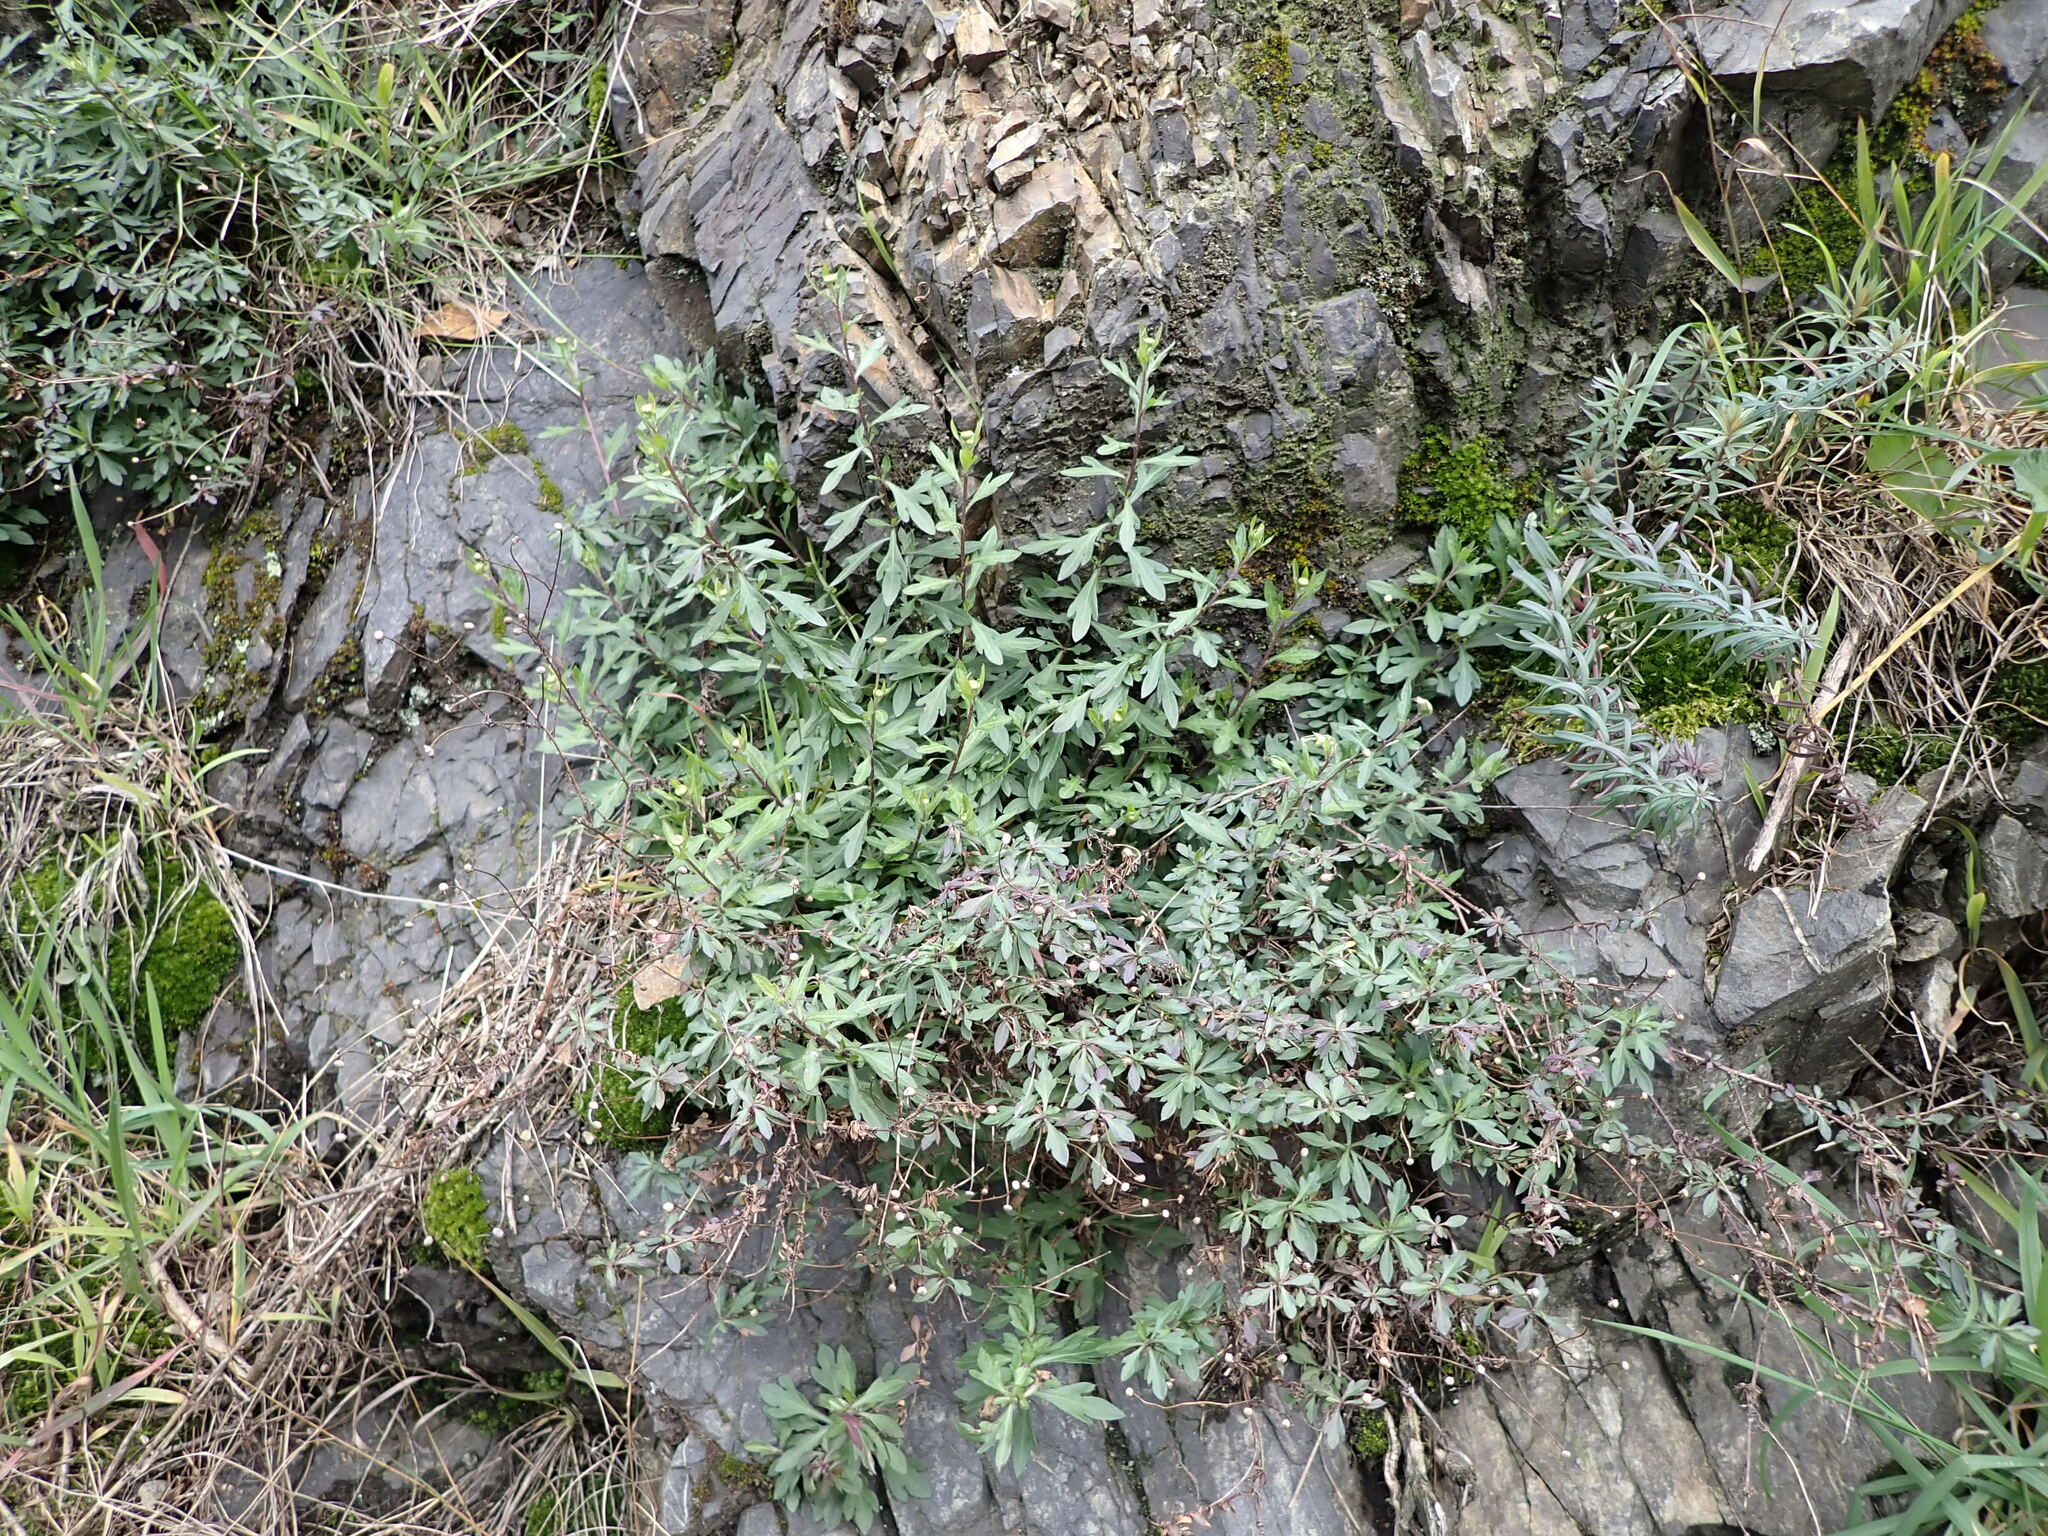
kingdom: Plantae
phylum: Tracheophyta
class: Magnoliopsida
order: Asterales
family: Asteraceae
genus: Erigeron
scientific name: Erigeron karvinskianus
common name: Mexican fleabane
